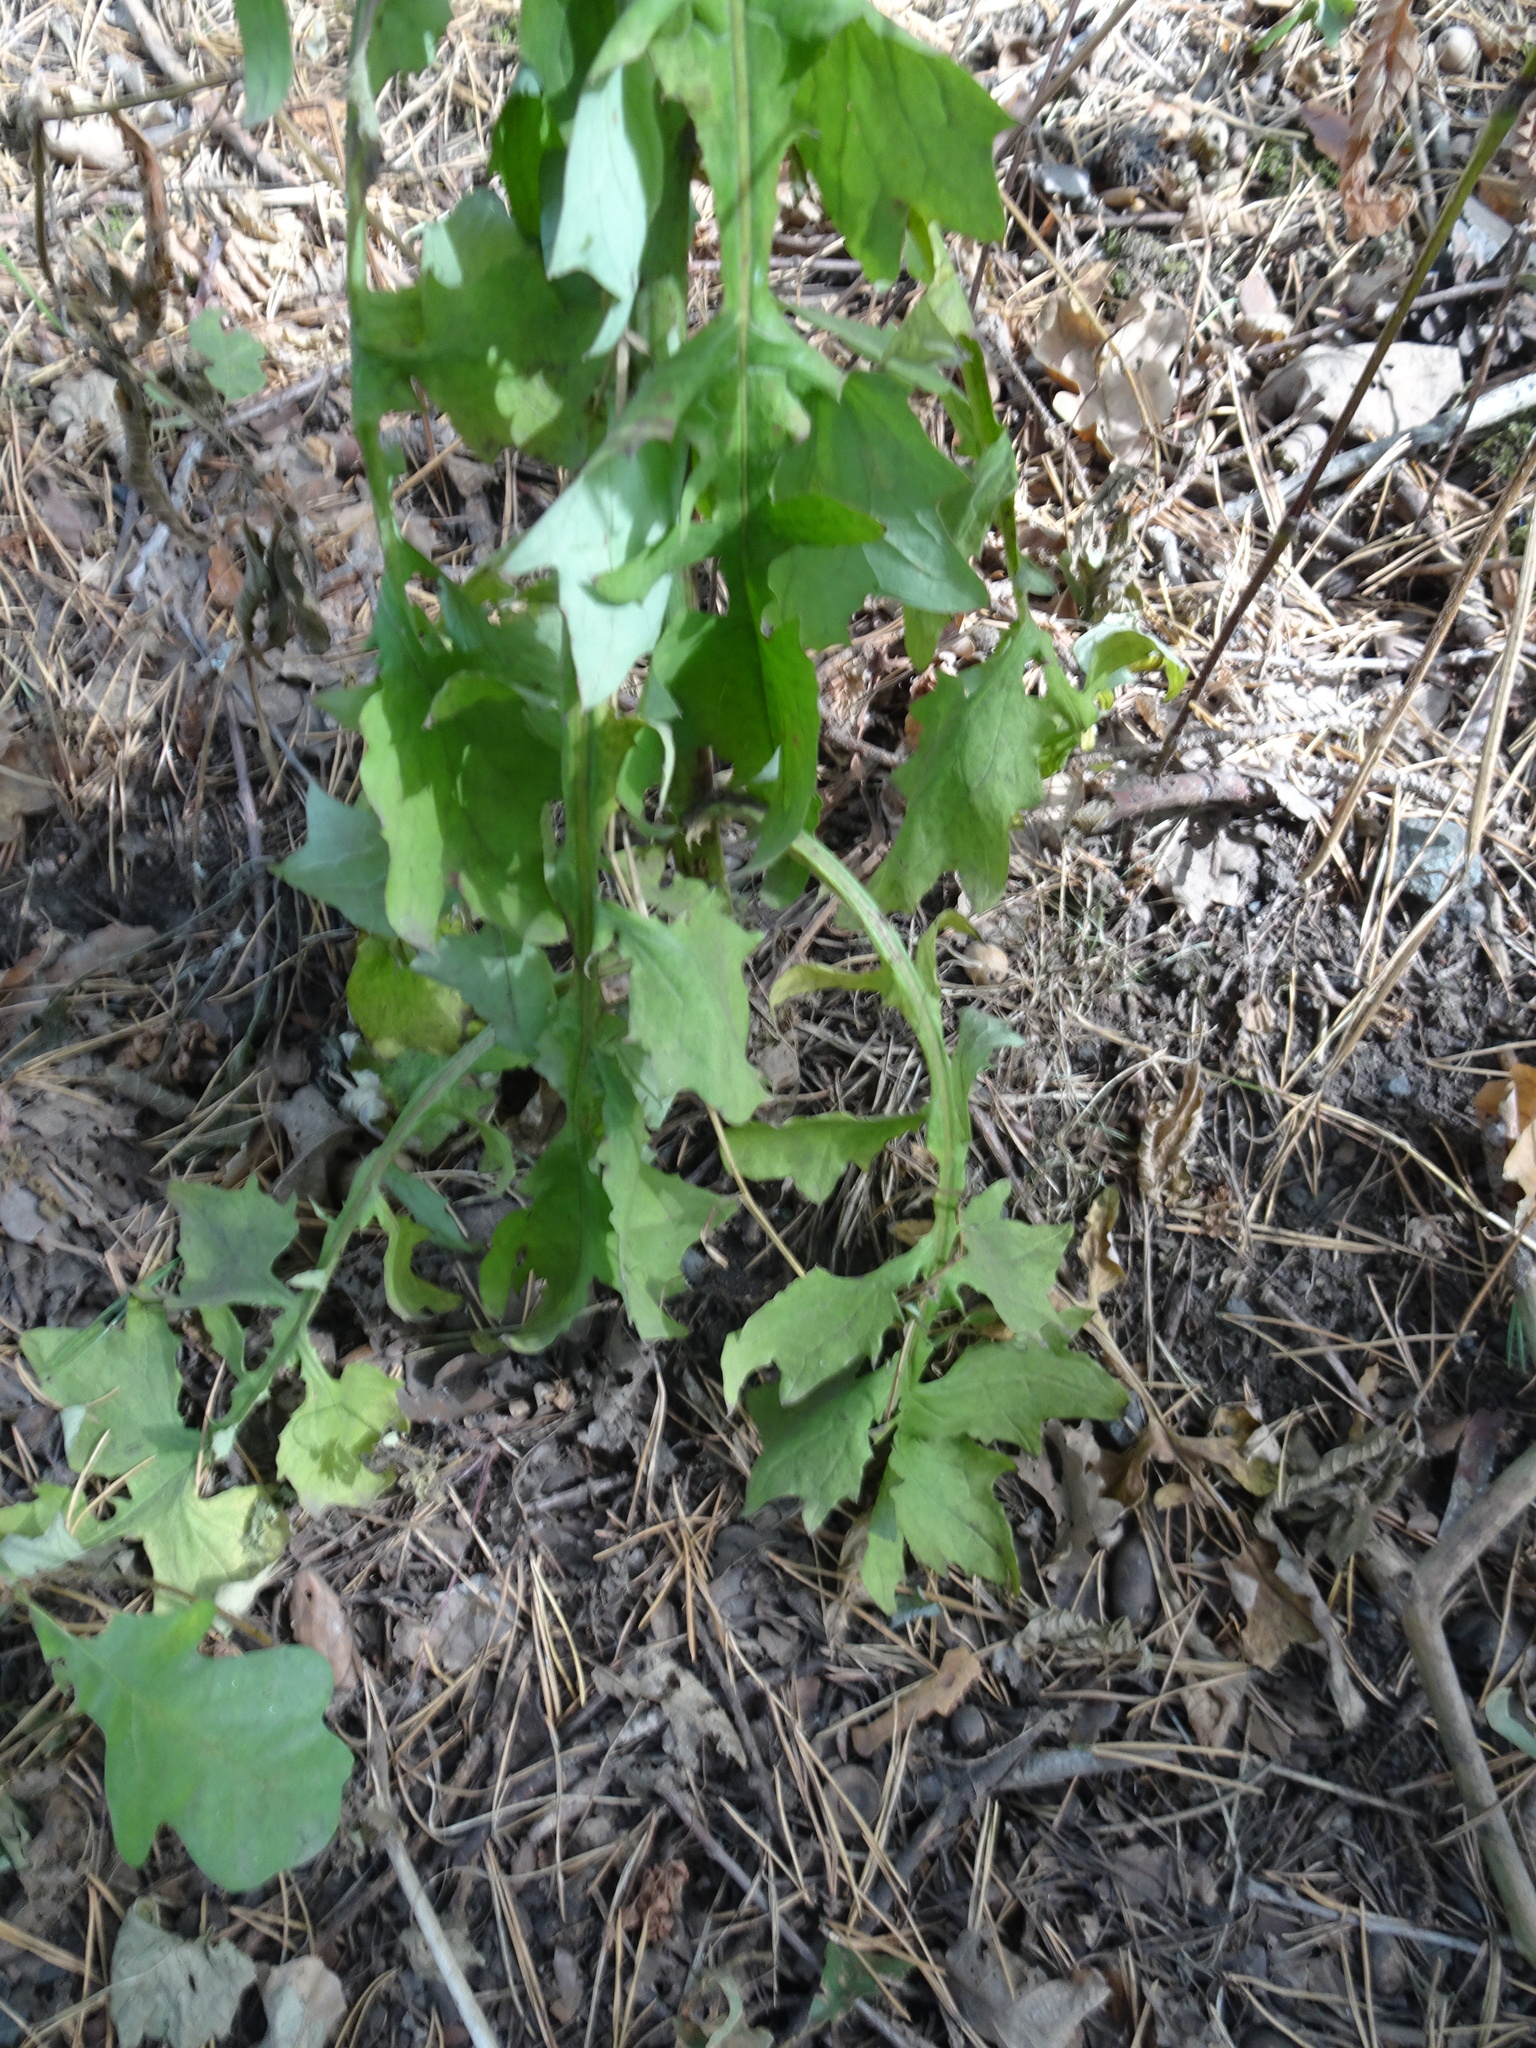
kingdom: Plantae
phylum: Tracheophyta
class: Magnoliopsida
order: Asterales
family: Asteraceae
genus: Mycelis
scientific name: Mycelis muralis
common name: Wall lettuce
